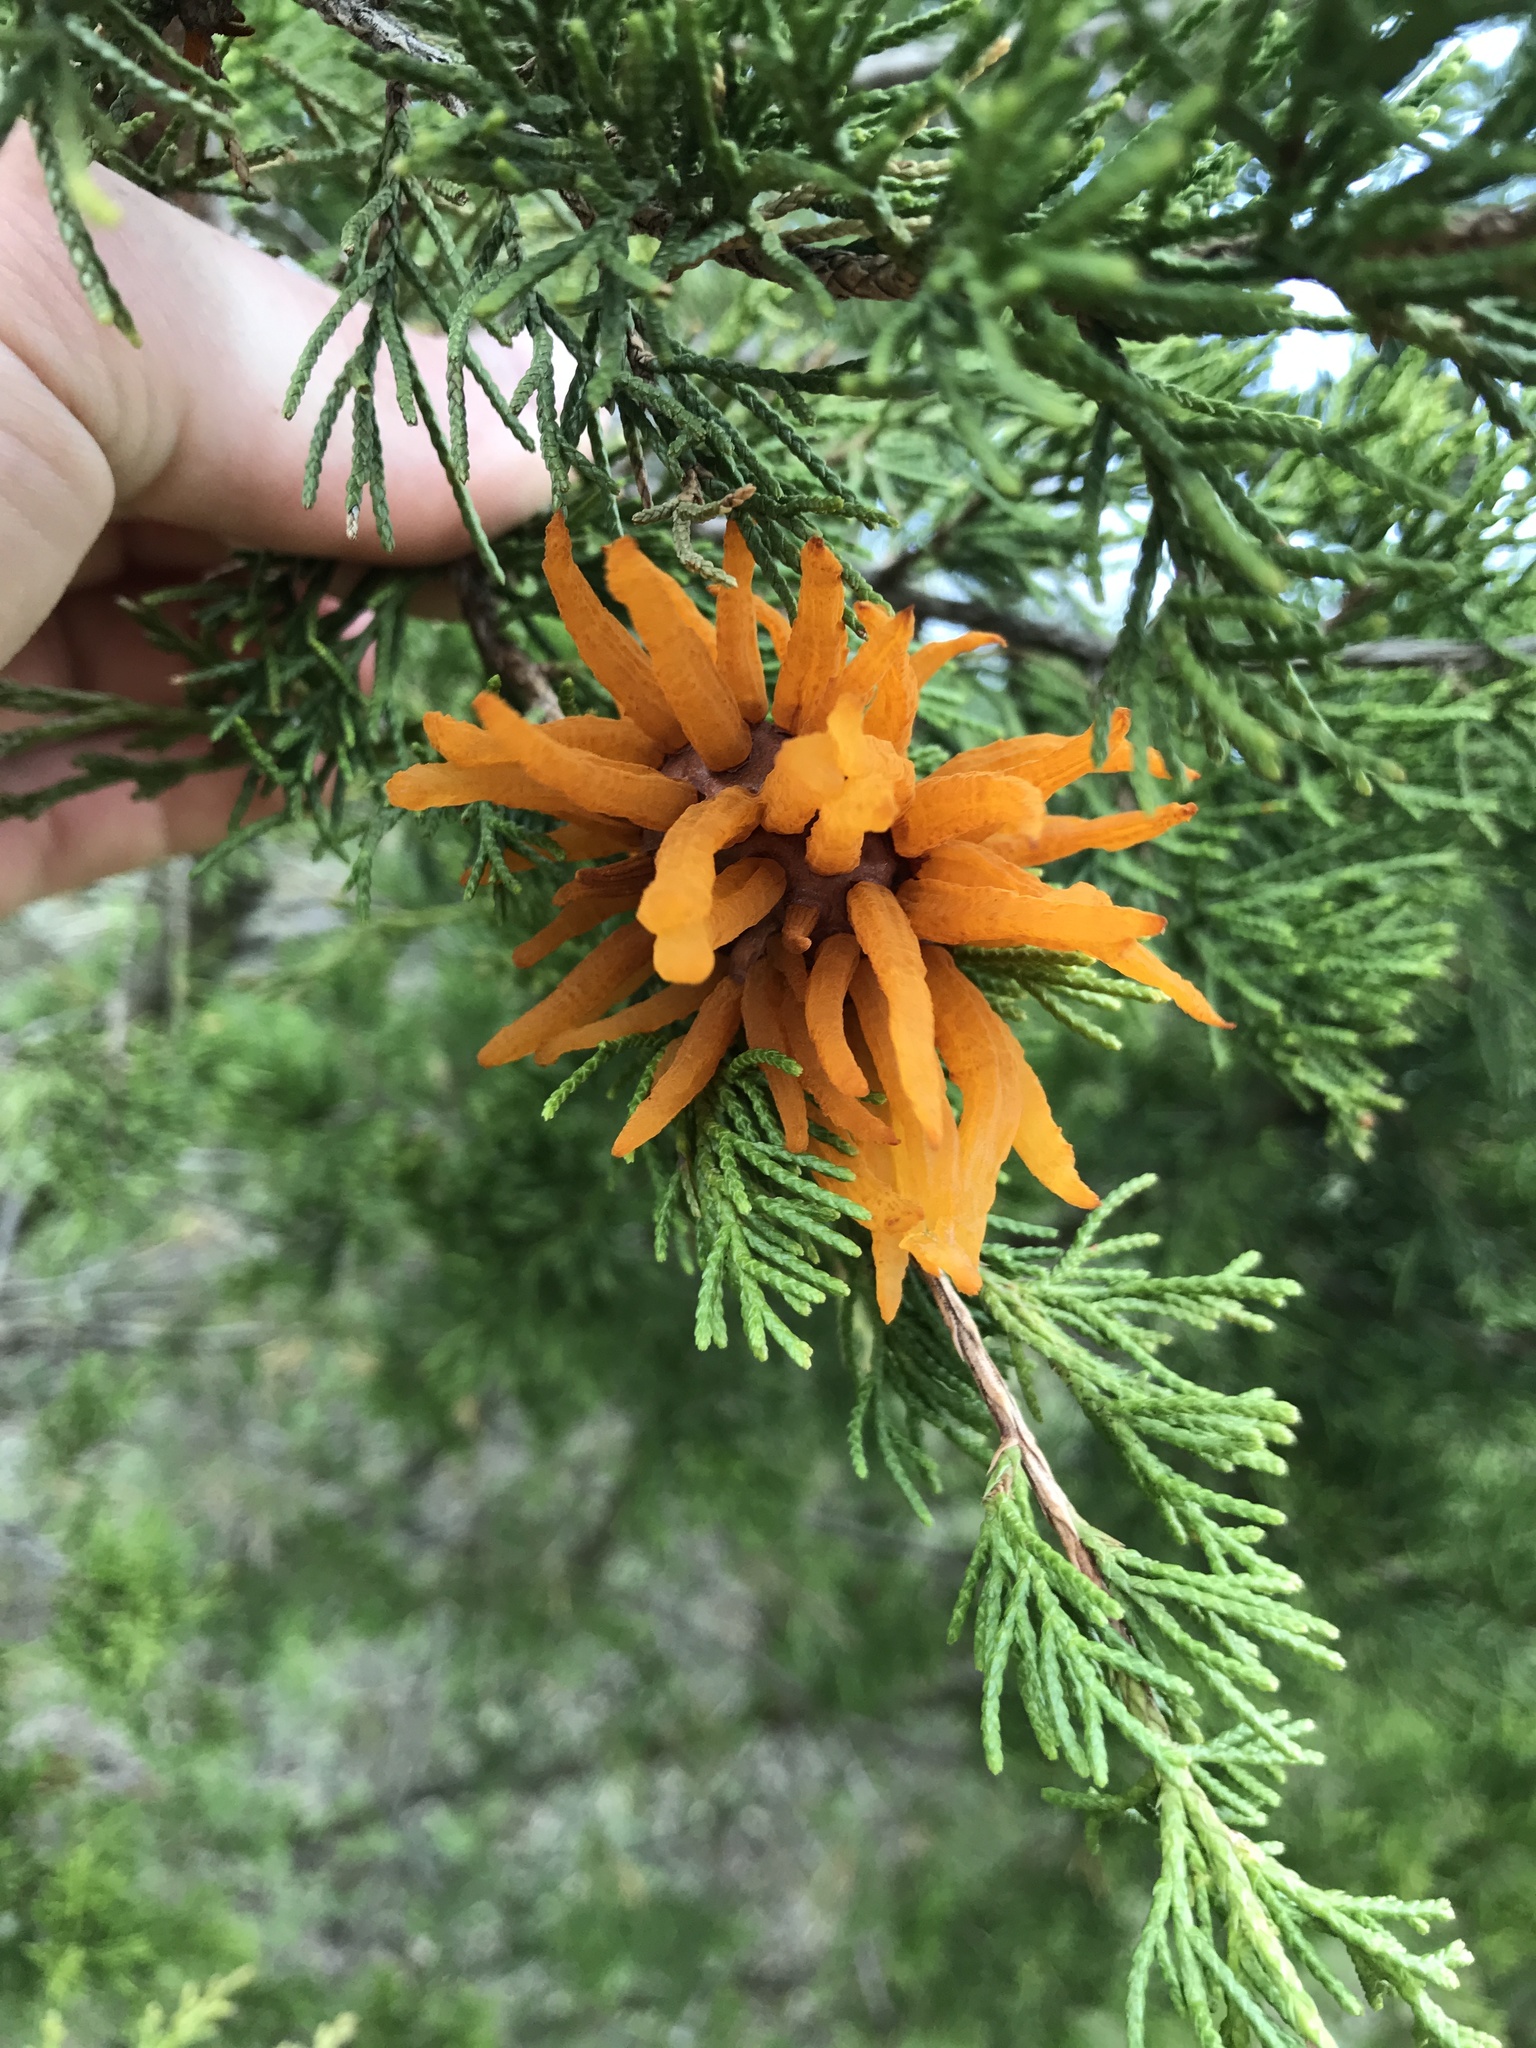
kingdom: Fungi
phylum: Basidiomycota
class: Pucciniomycetes
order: Pucciniales
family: Gymnosporangiaceae
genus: Gymnosporangium
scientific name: Gymnosporangium juniperi-virginianae
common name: Juniper-apple rust
